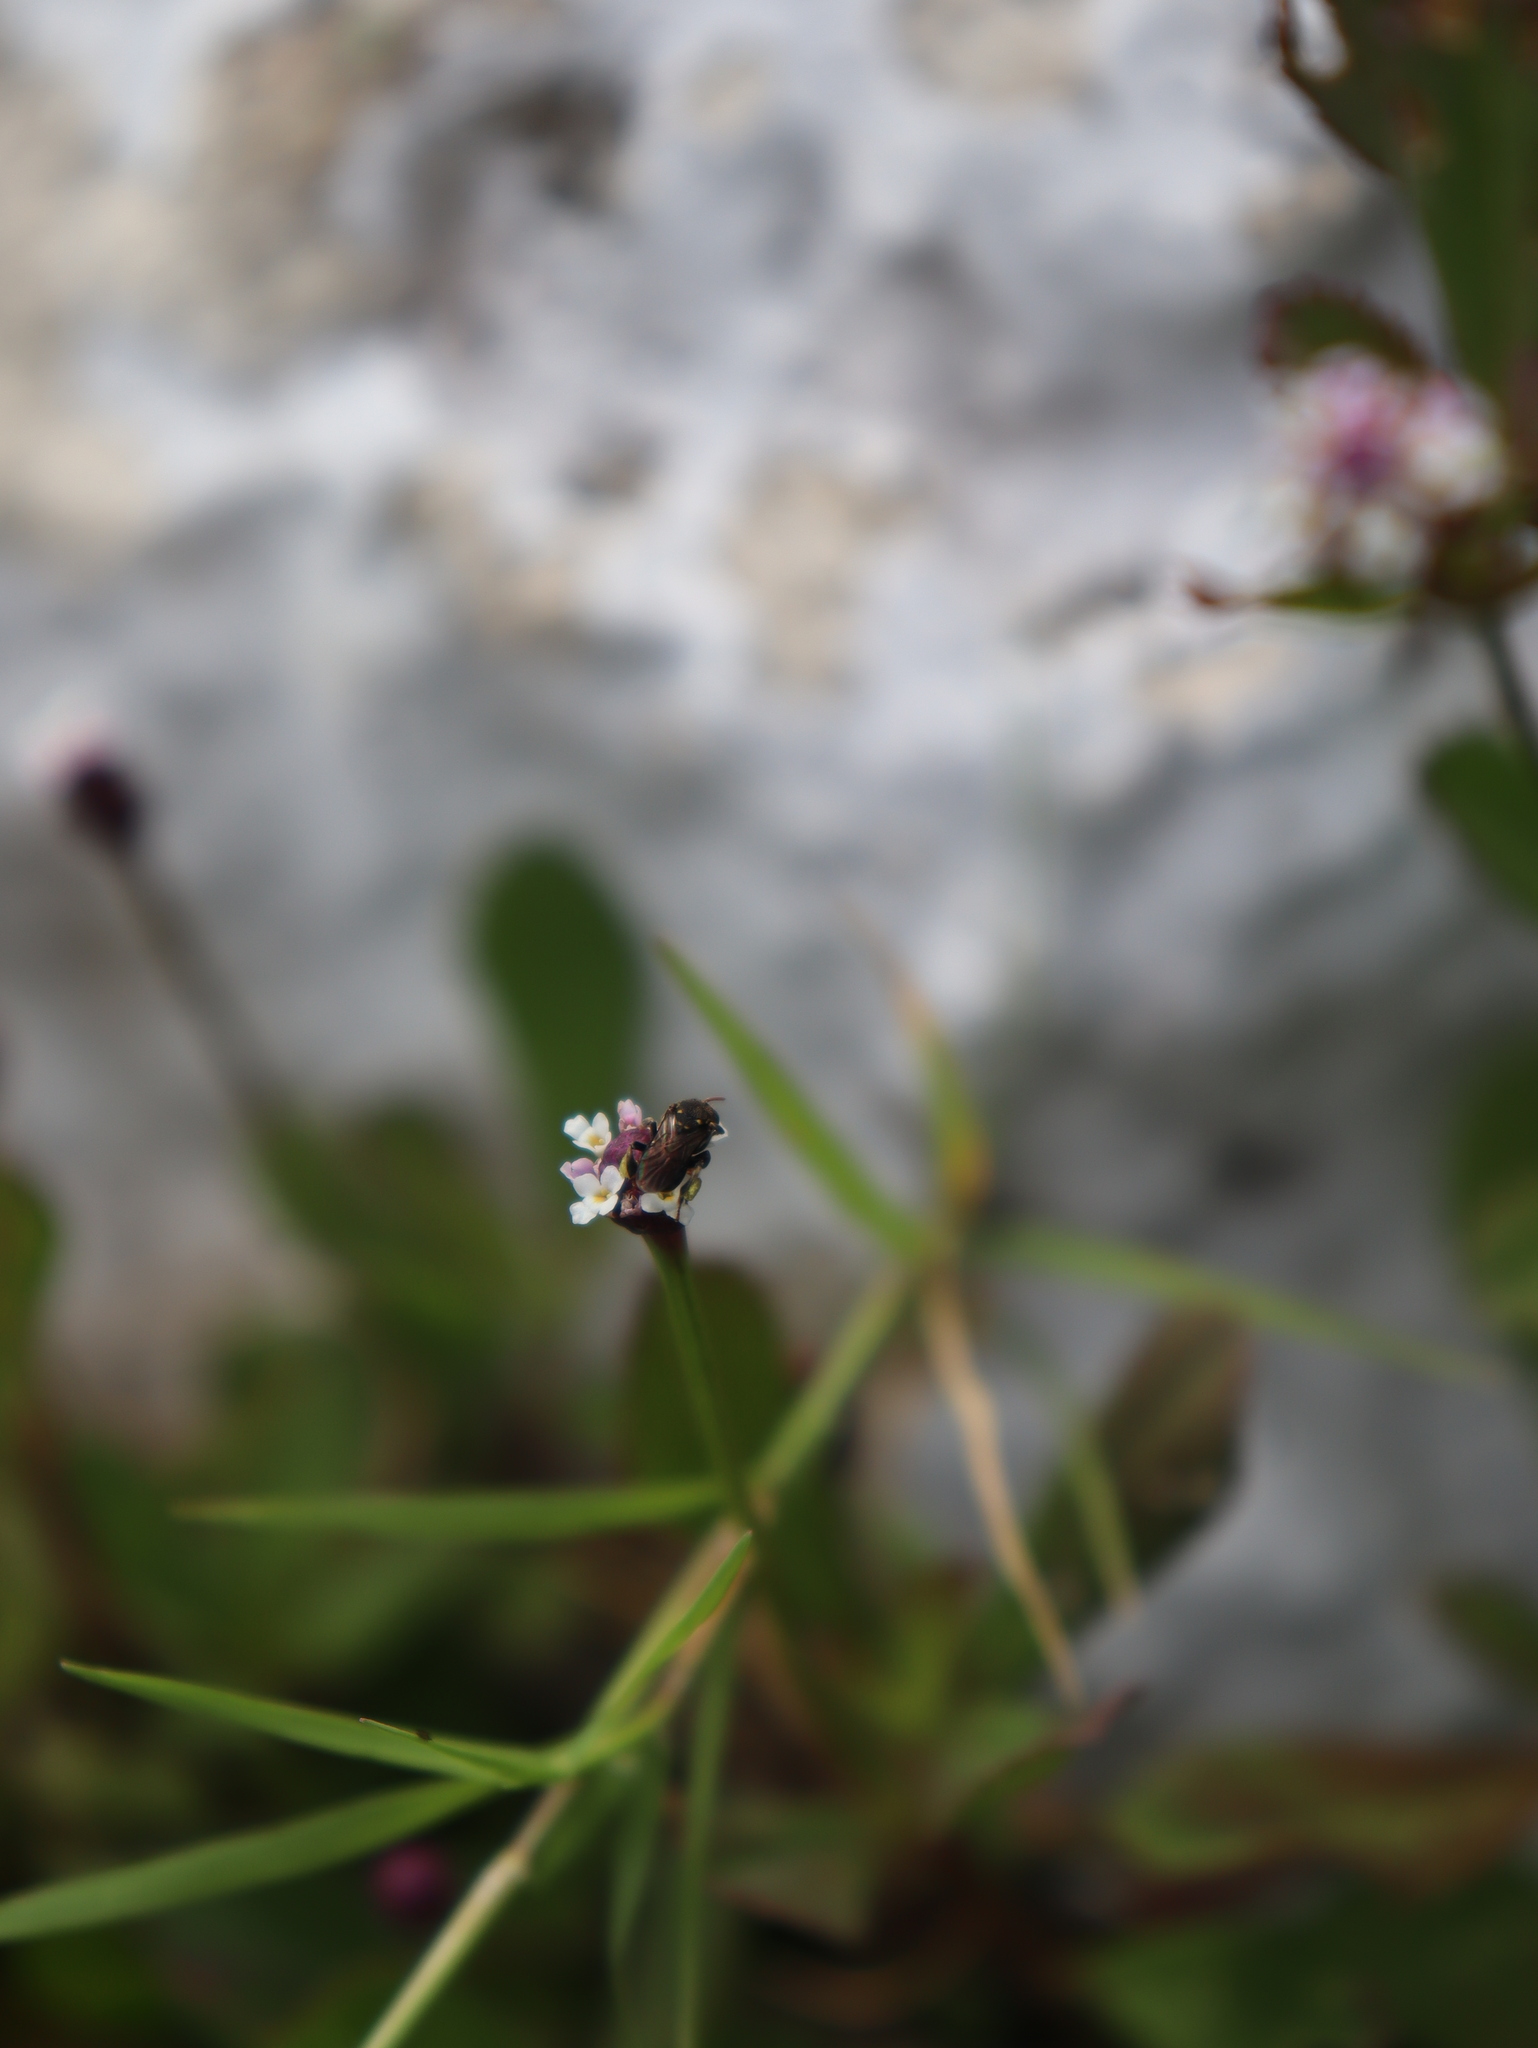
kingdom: Animalia
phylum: Arthropoda
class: Insecta
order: Hymenoptera
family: Apidae
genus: Nannotrigona
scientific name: Nannotrigona perilampoides
